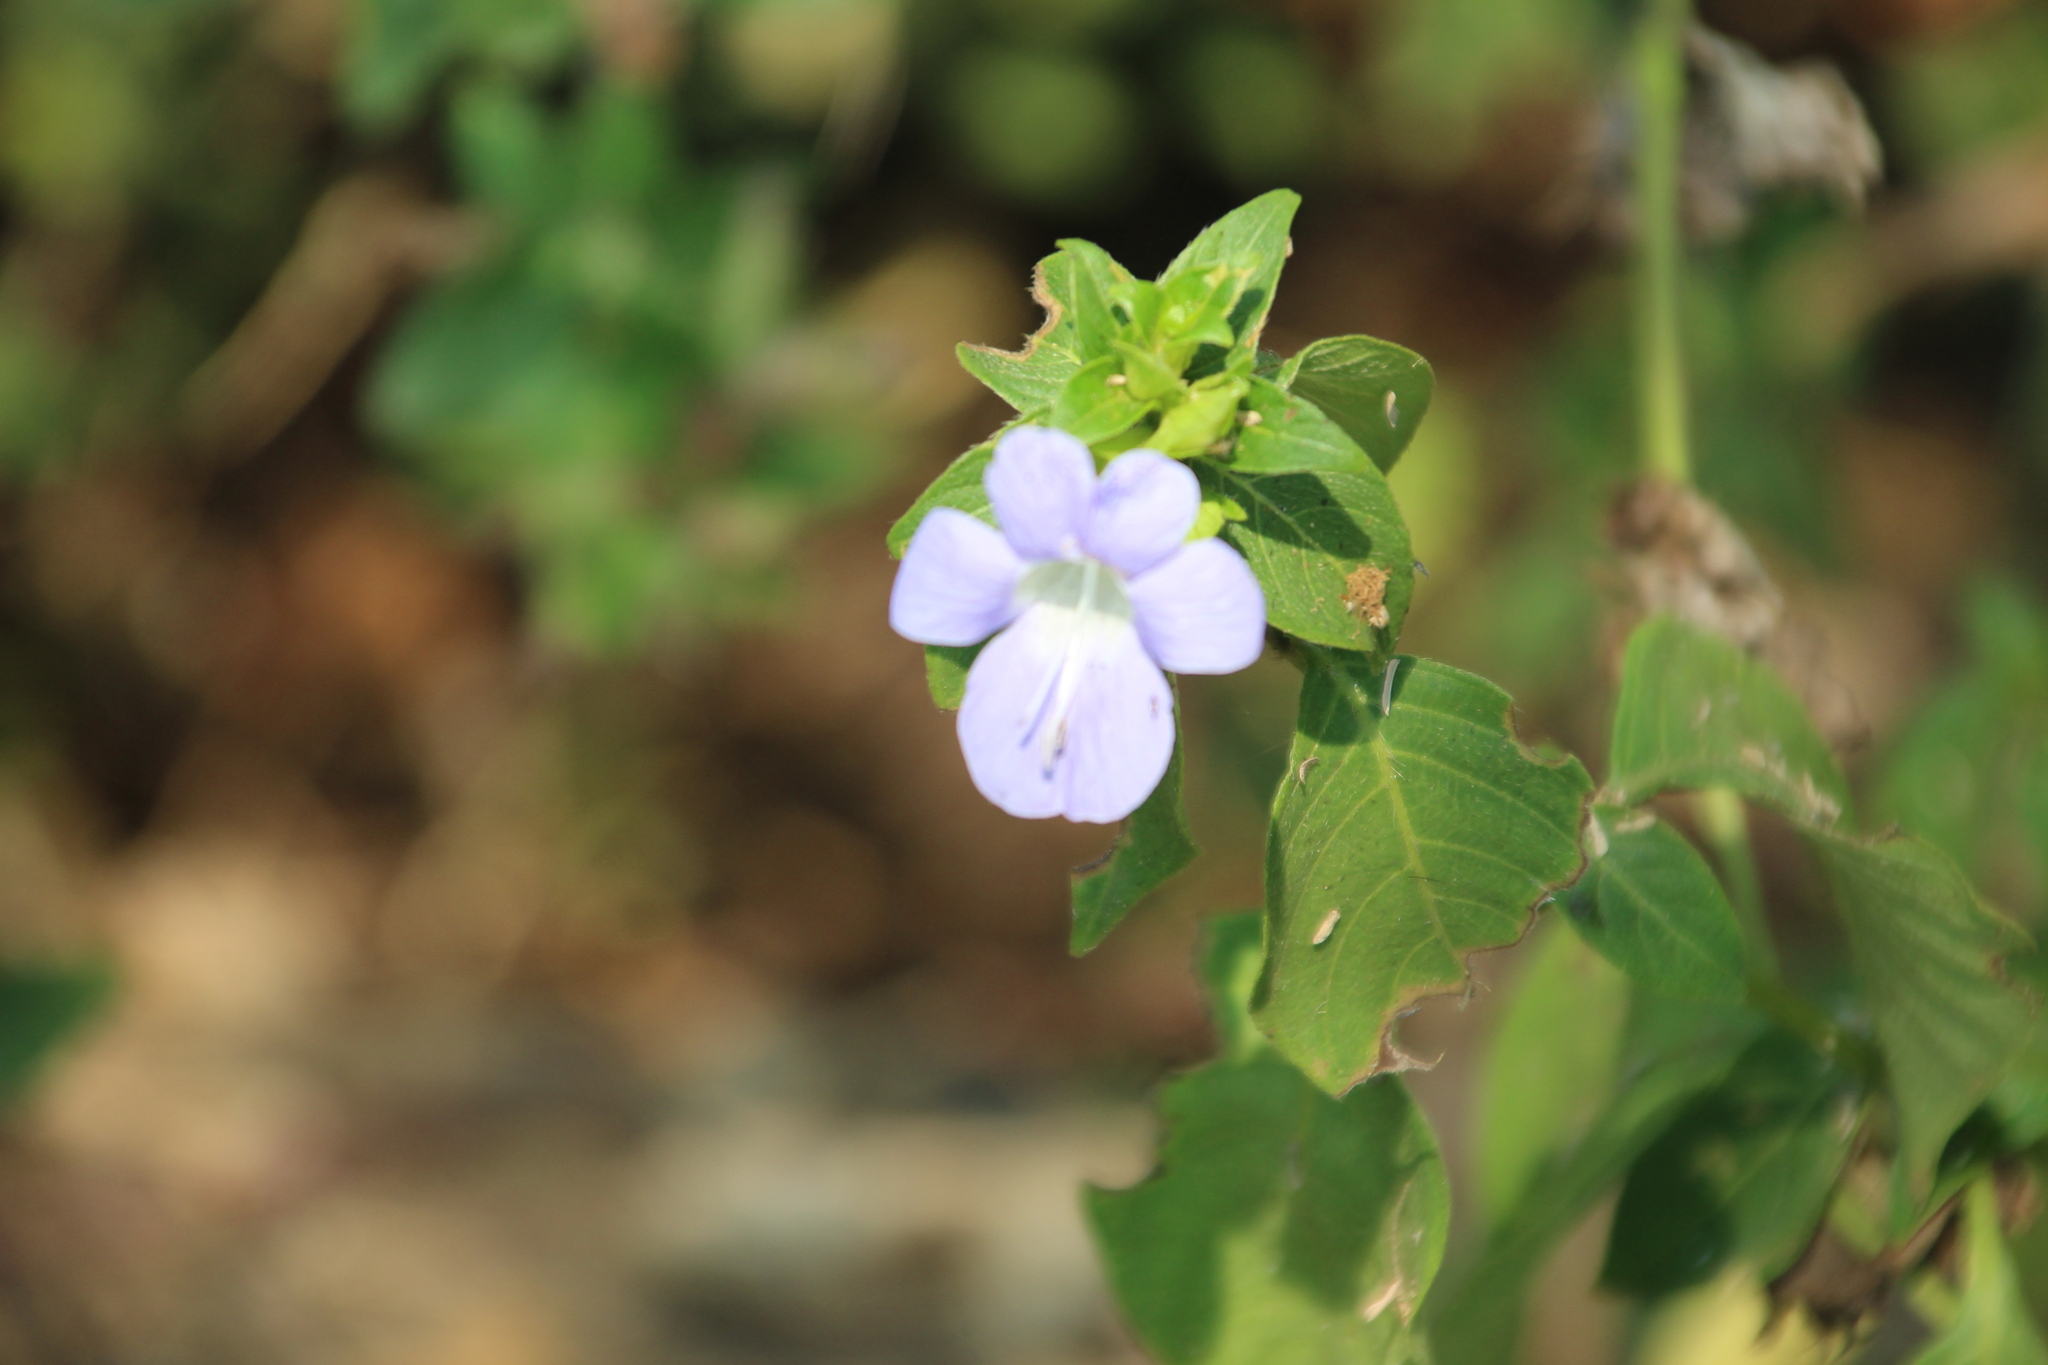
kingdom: Plantae
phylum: Tracheophyta
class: Magnoliopsida
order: Lamiales
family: Acanthaceae
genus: Barleria
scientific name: Barleria ventricosa
